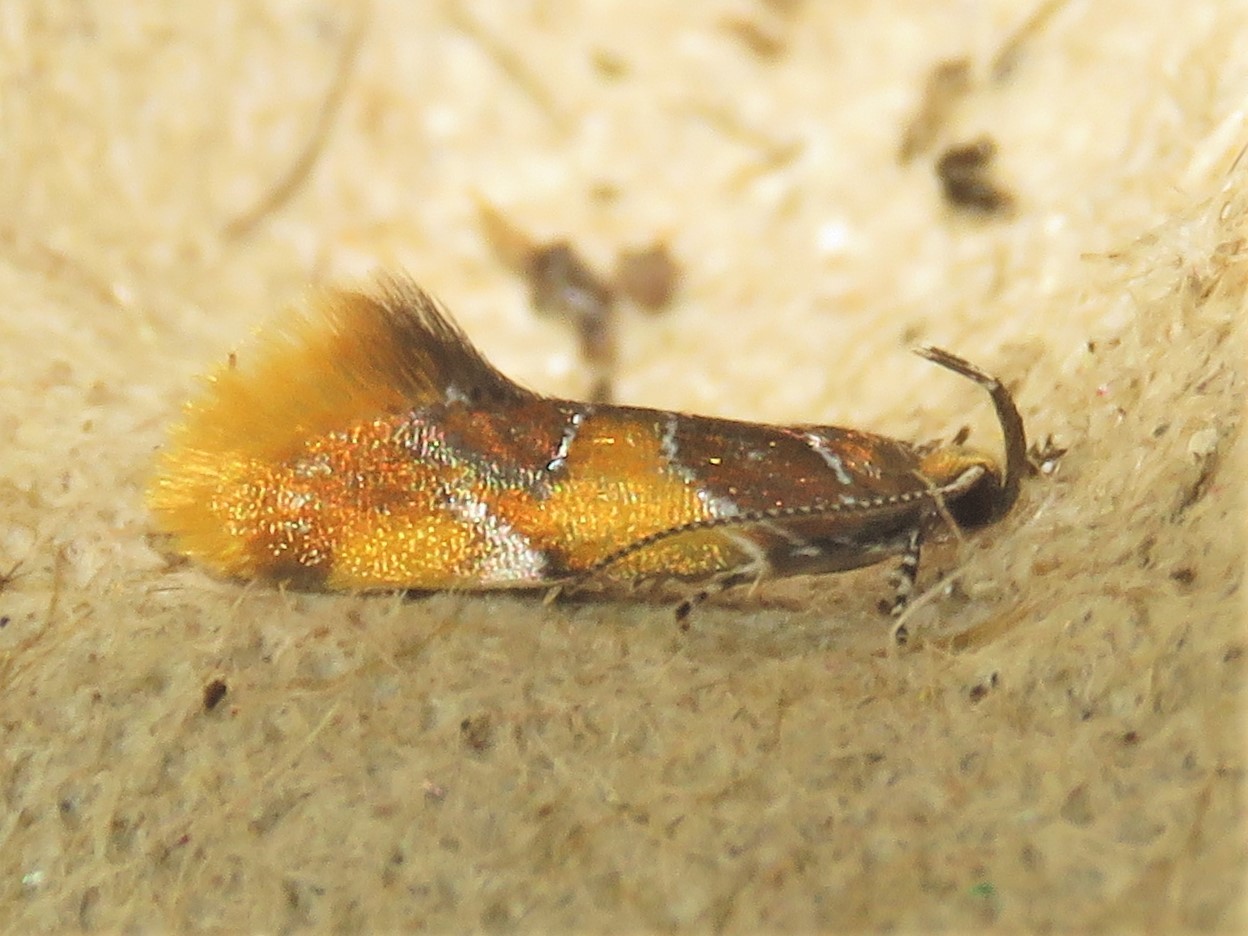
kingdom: Animalia
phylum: Arthropoda
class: Insecta
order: Lepidoptera
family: Oecophoridae
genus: Callima
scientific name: Callima argenticinctella
